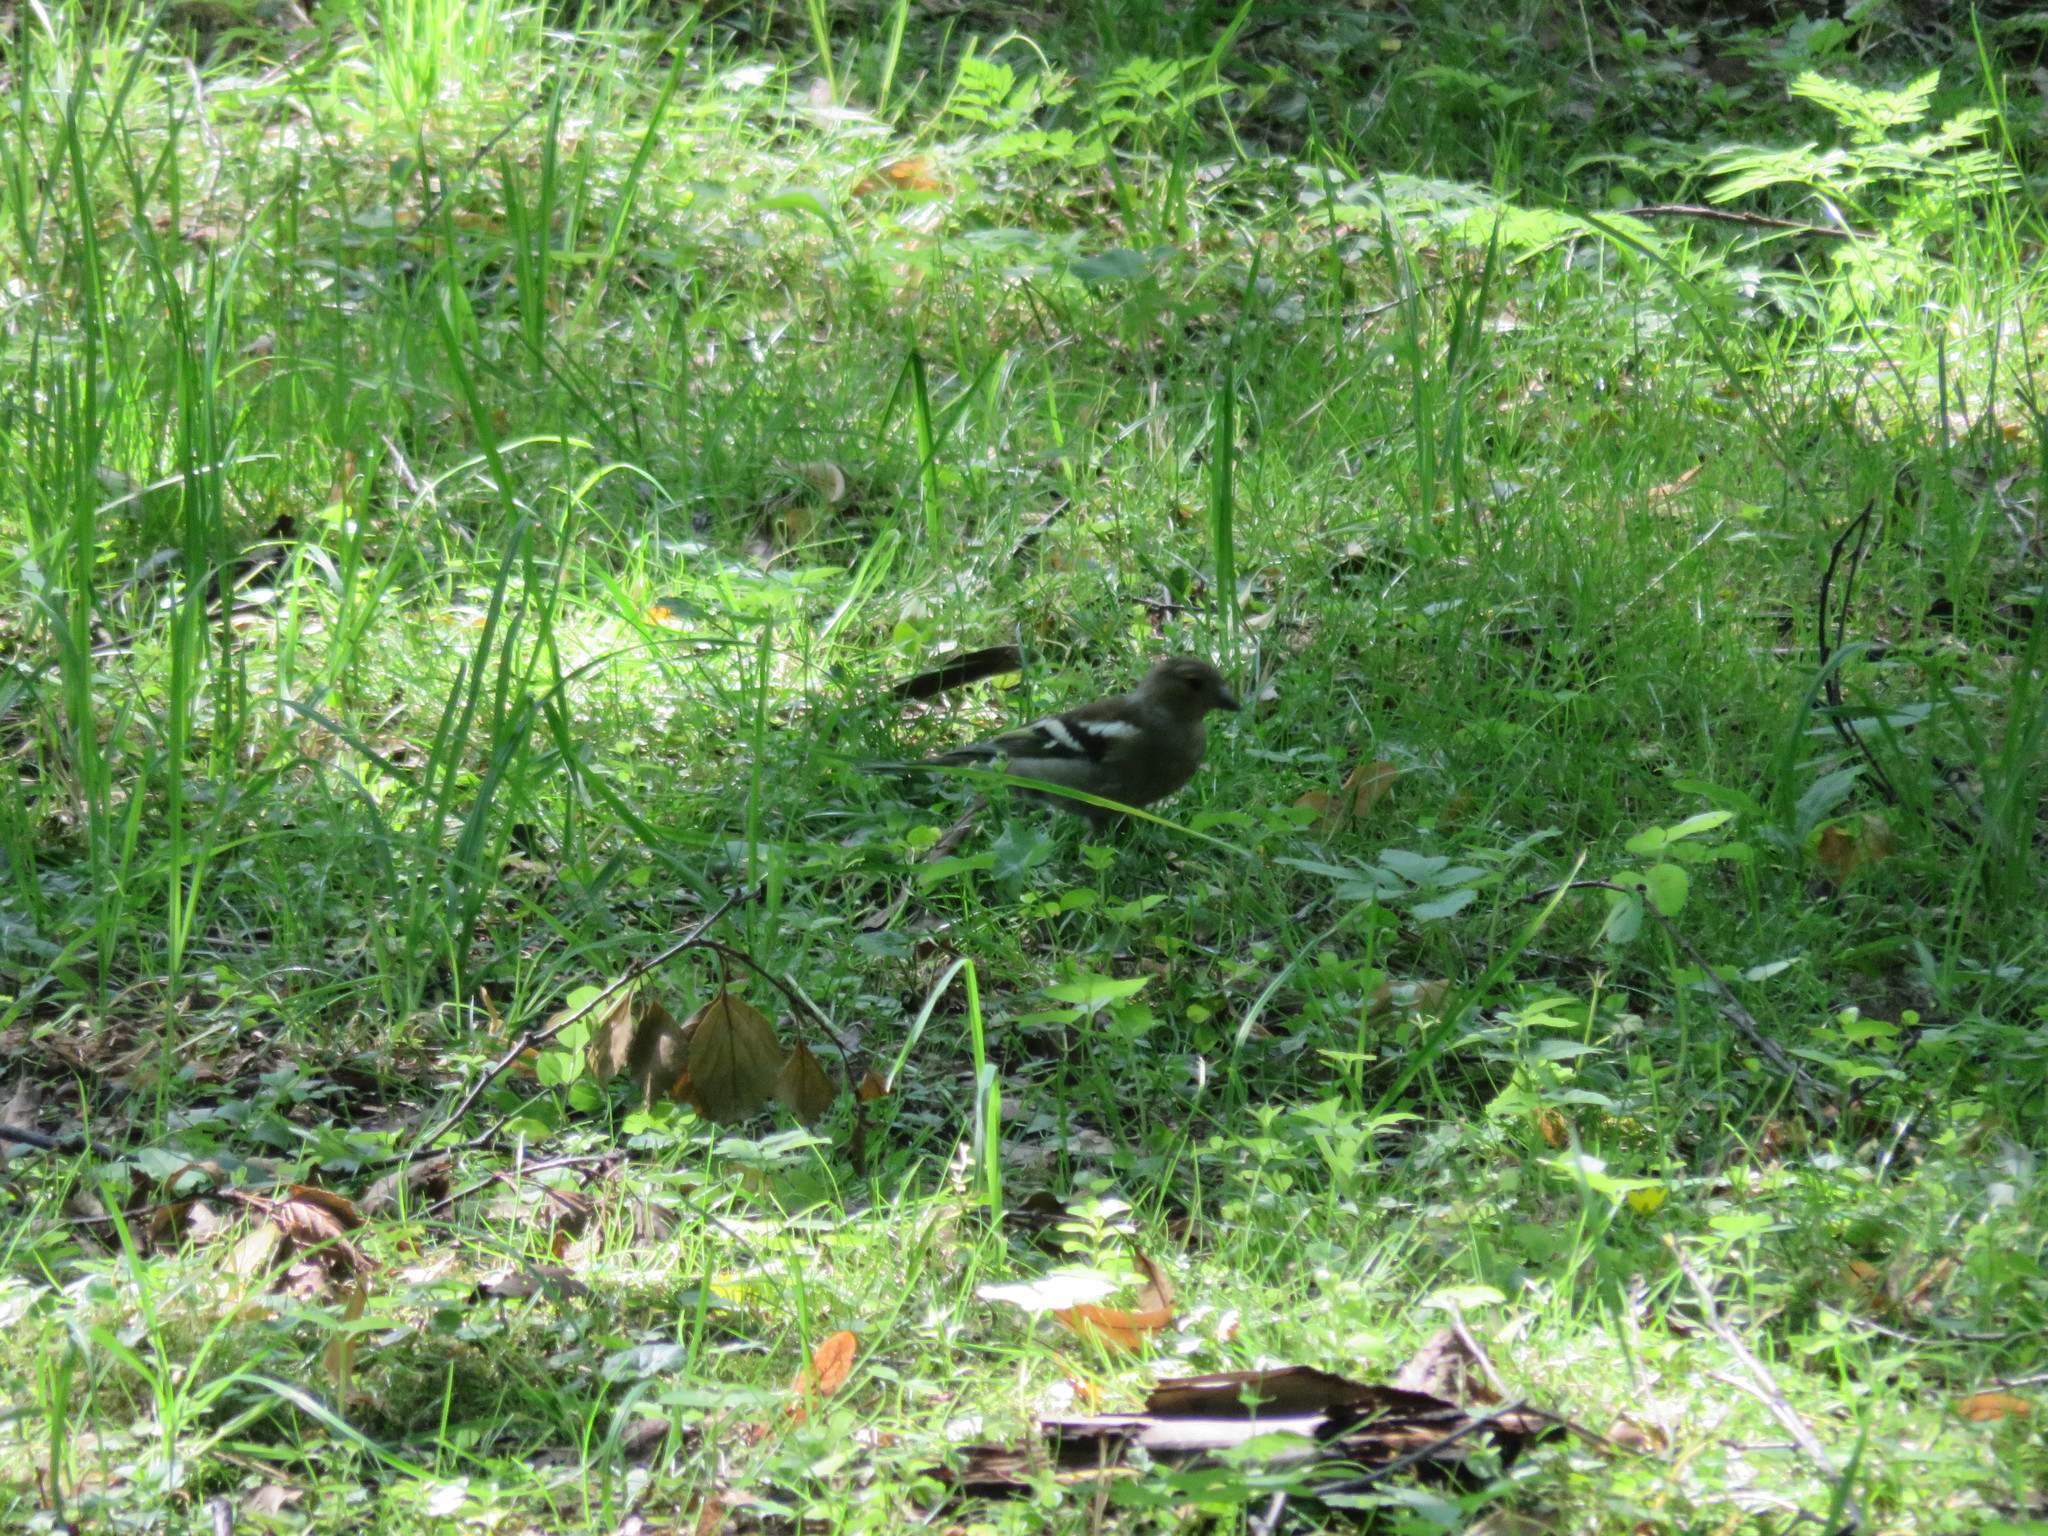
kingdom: Animalia
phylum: Chordata
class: Aves
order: Passeriformes
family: Fringillidae
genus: Fringilla
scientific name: Fringilla coelebs
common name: Common chaffinch
